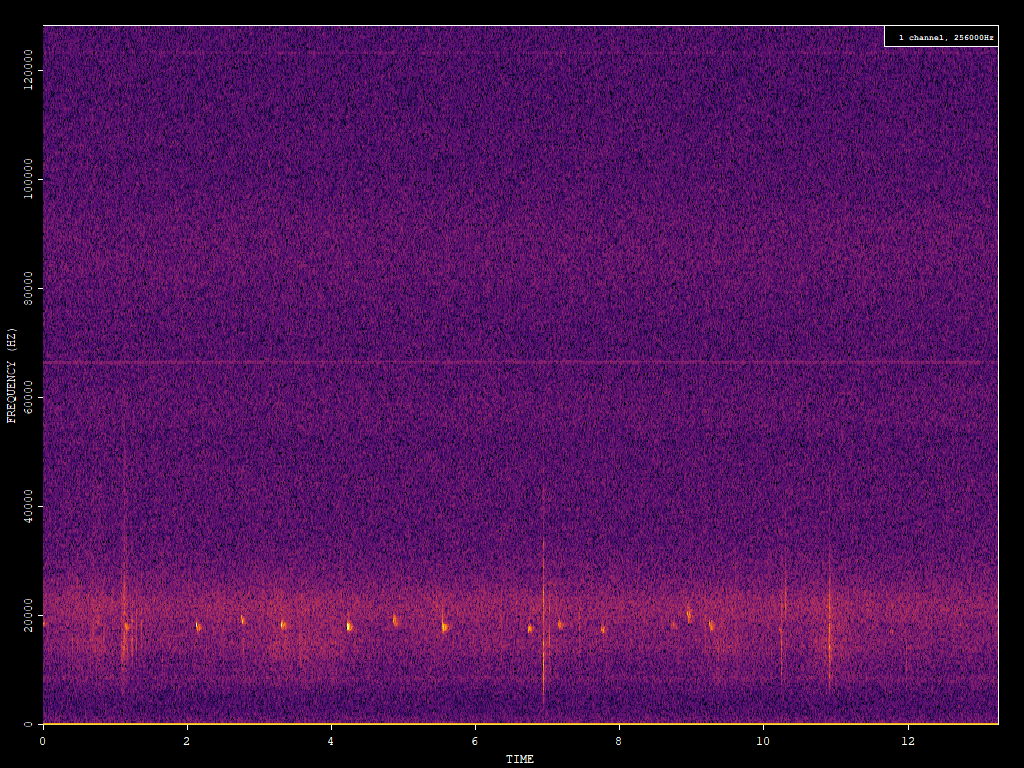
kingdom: Animalia
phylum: Chordata
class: Mammalia
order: Chiroptera
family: Vespertilionidae
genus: Nyctalus
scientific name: Nyctalus noctula
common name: Noctule
